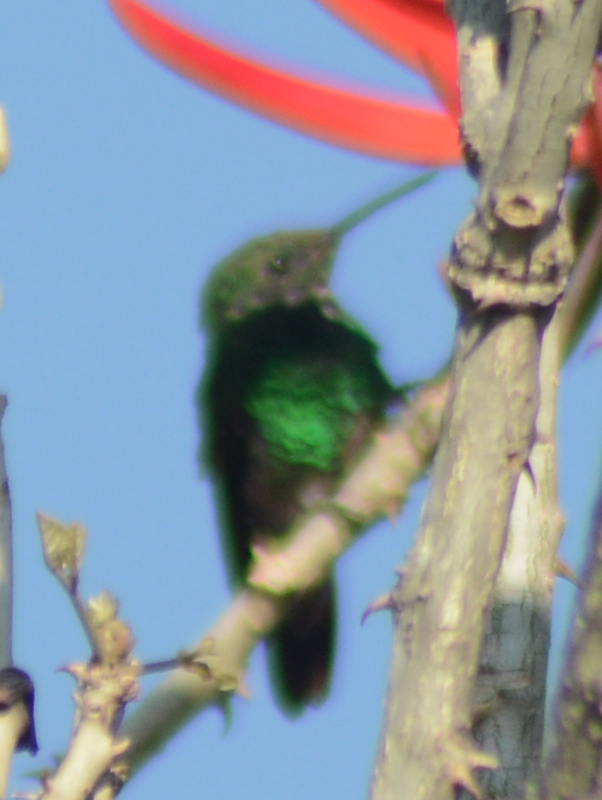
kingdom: Animalia
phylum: Chordata
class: Aves
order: Apodiformes
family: Trochilidae
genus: Saucerottia
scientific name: Saucerottia beryllina
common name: Berylline hummingbird
